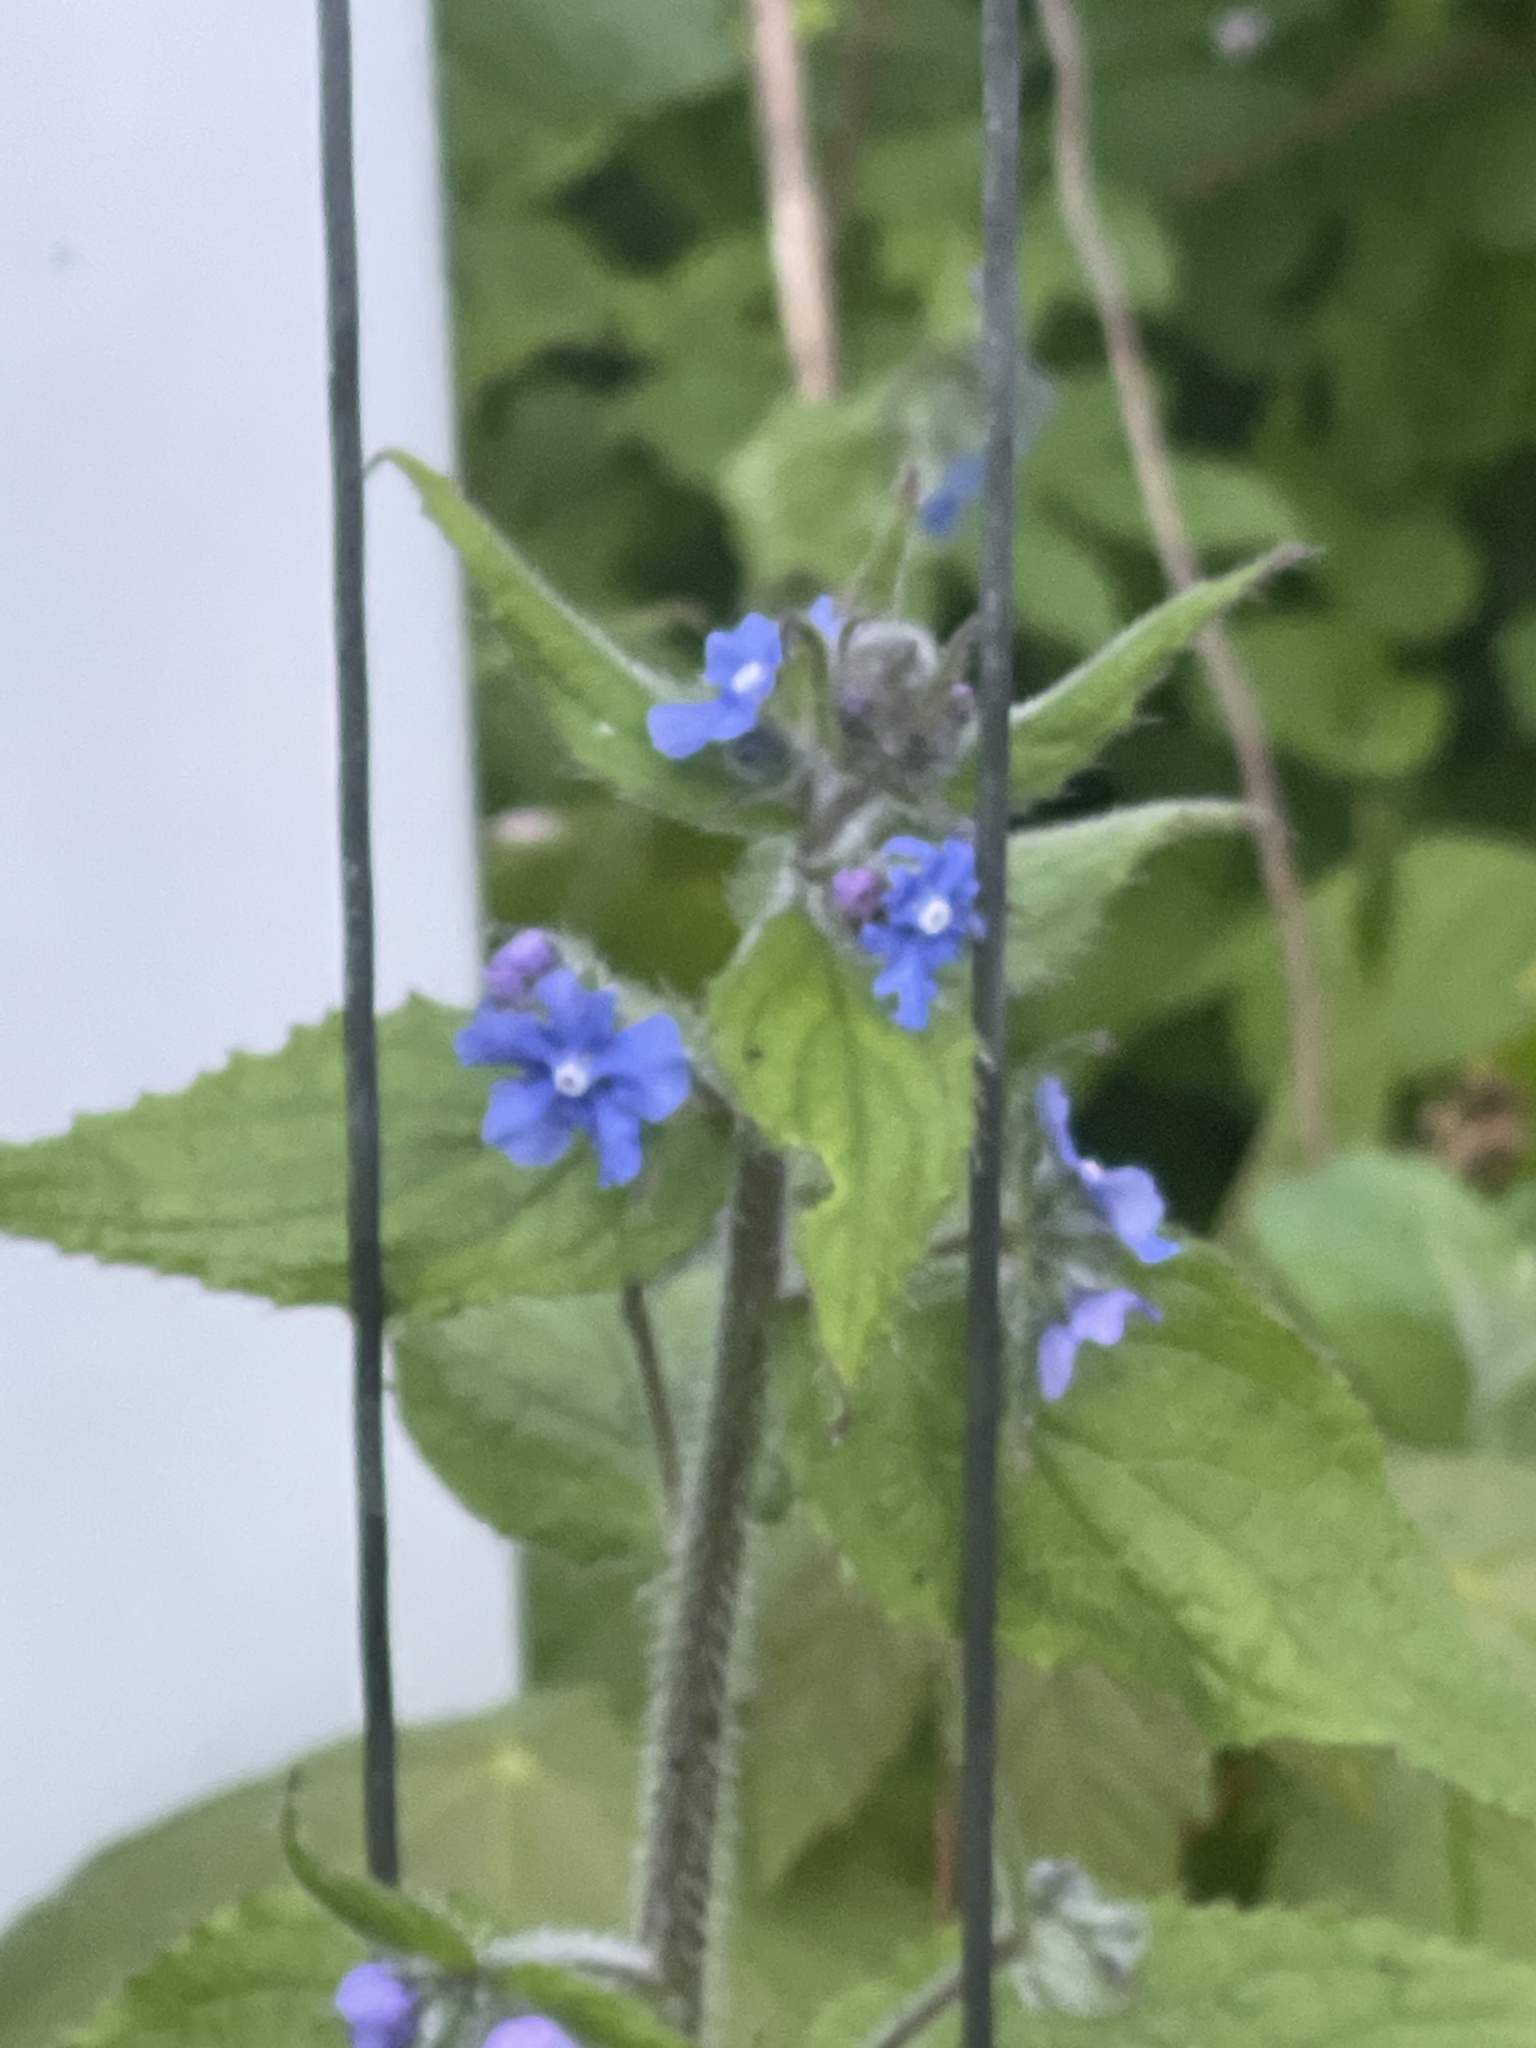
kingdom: Plantae
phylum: Tracheophyta
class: Magnoliopsida
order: Boraginales
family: Boraginaceae
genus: Pentaglottis
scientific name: Pentaglottis sempervirens
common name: Green alkanet
